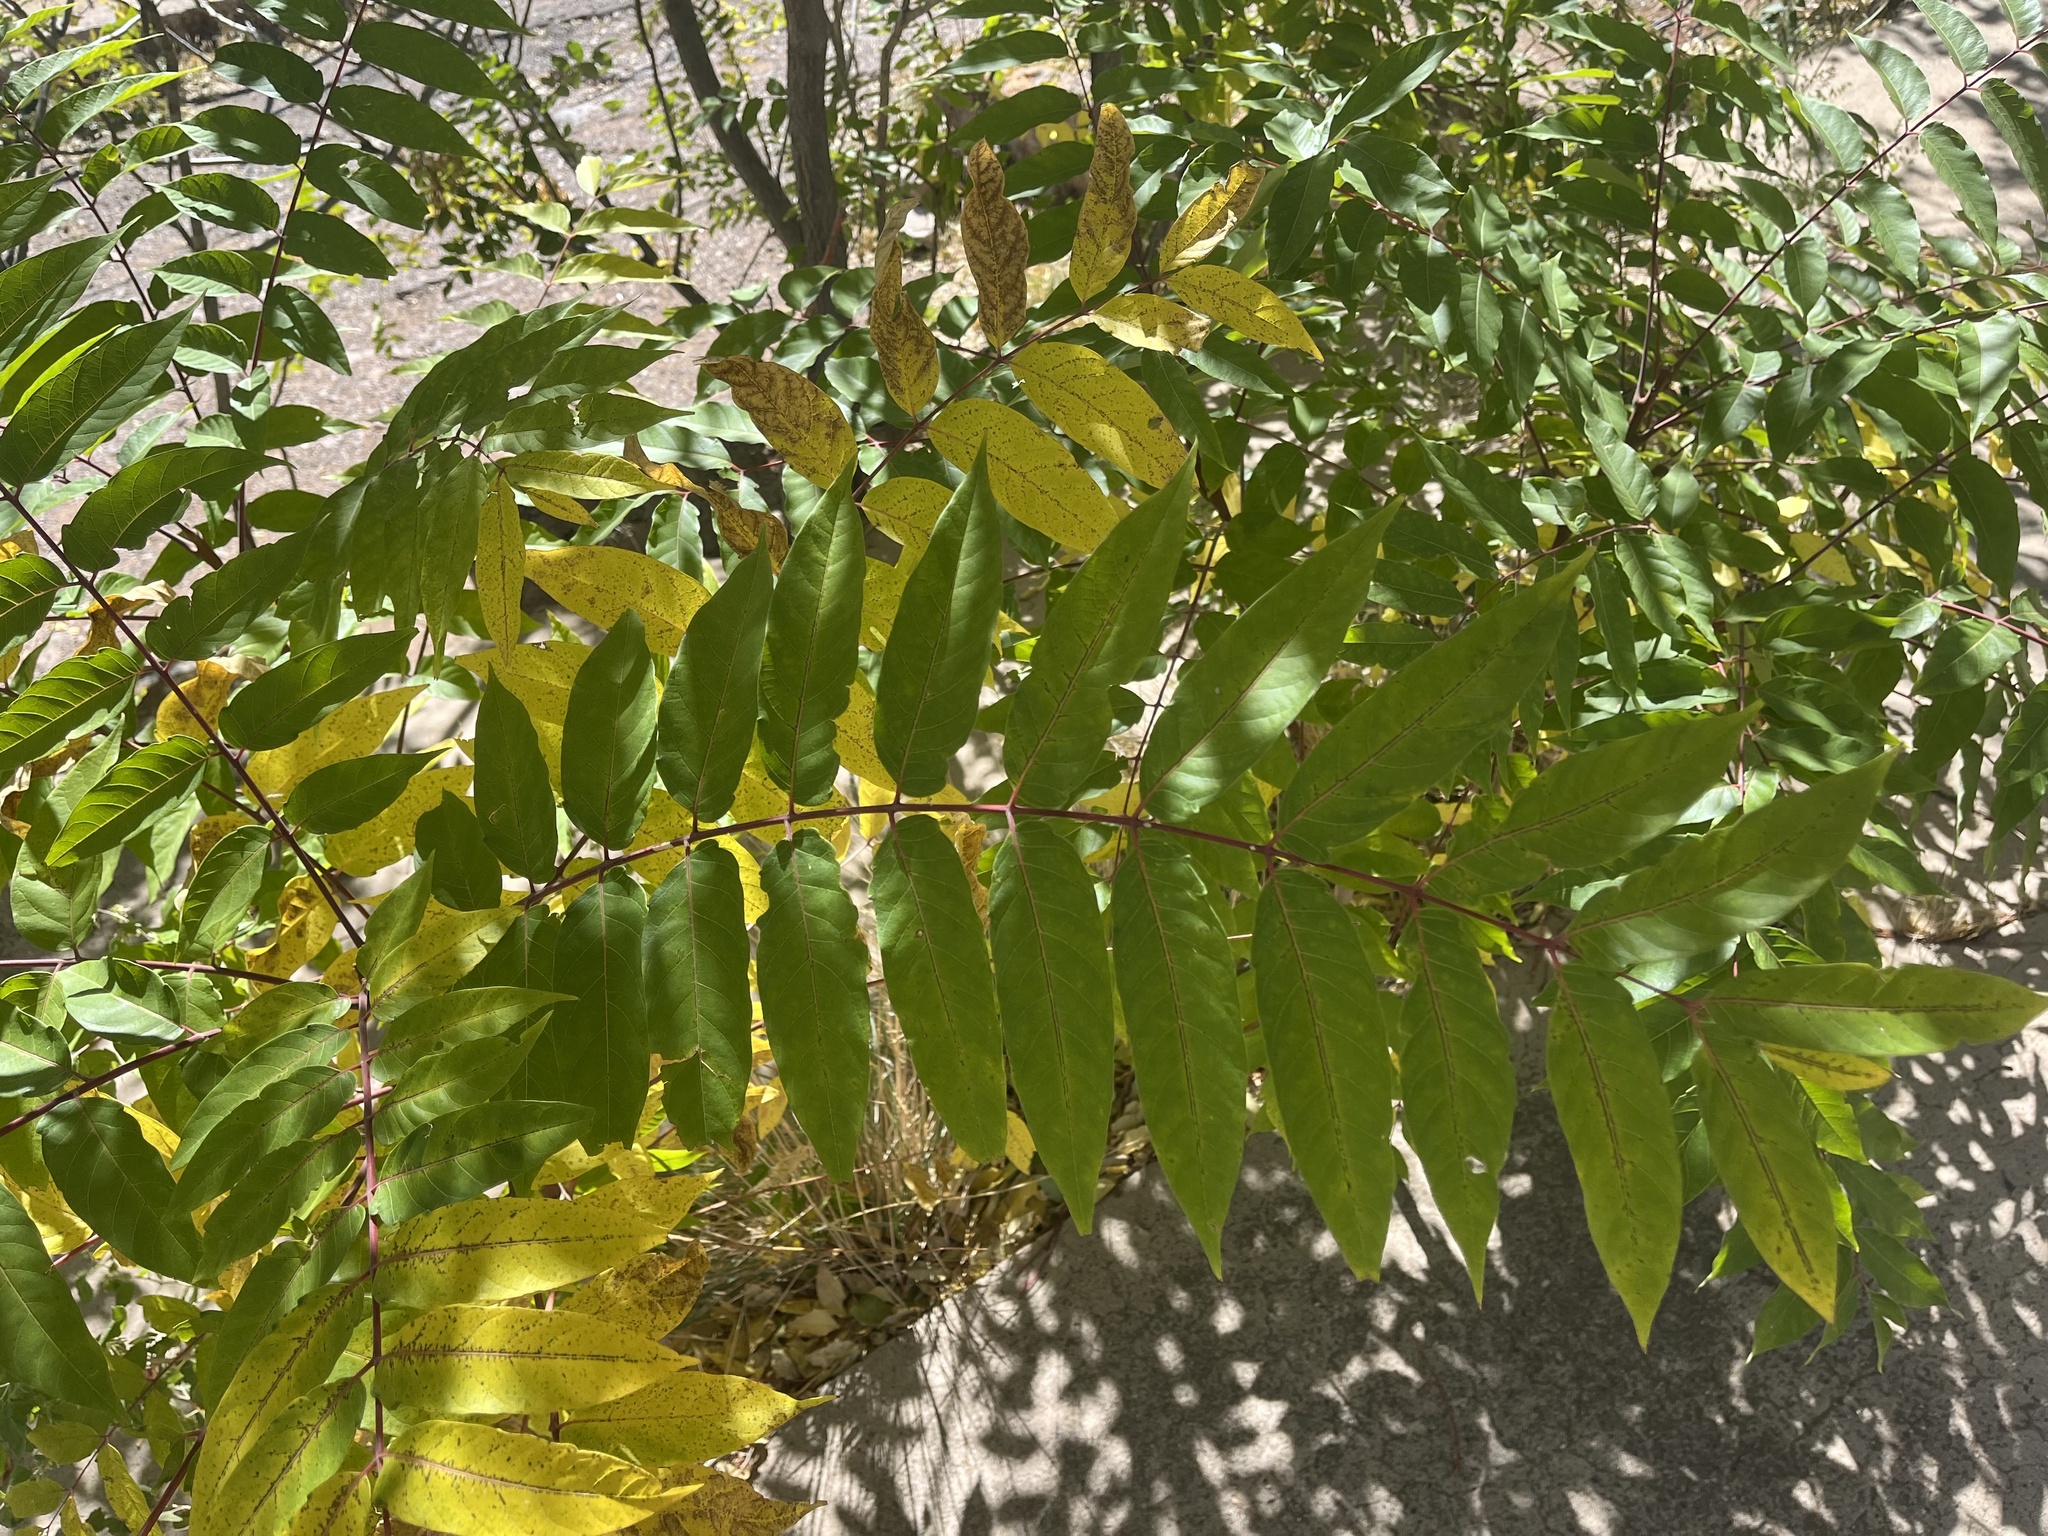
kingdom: Plantae
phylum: Tracheophyta
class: Magnoliopsida
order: Sapindales
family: Simaroubaceae
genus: Ailanthus
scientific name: Ailanthus altissima
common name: Tree-of-heaven
